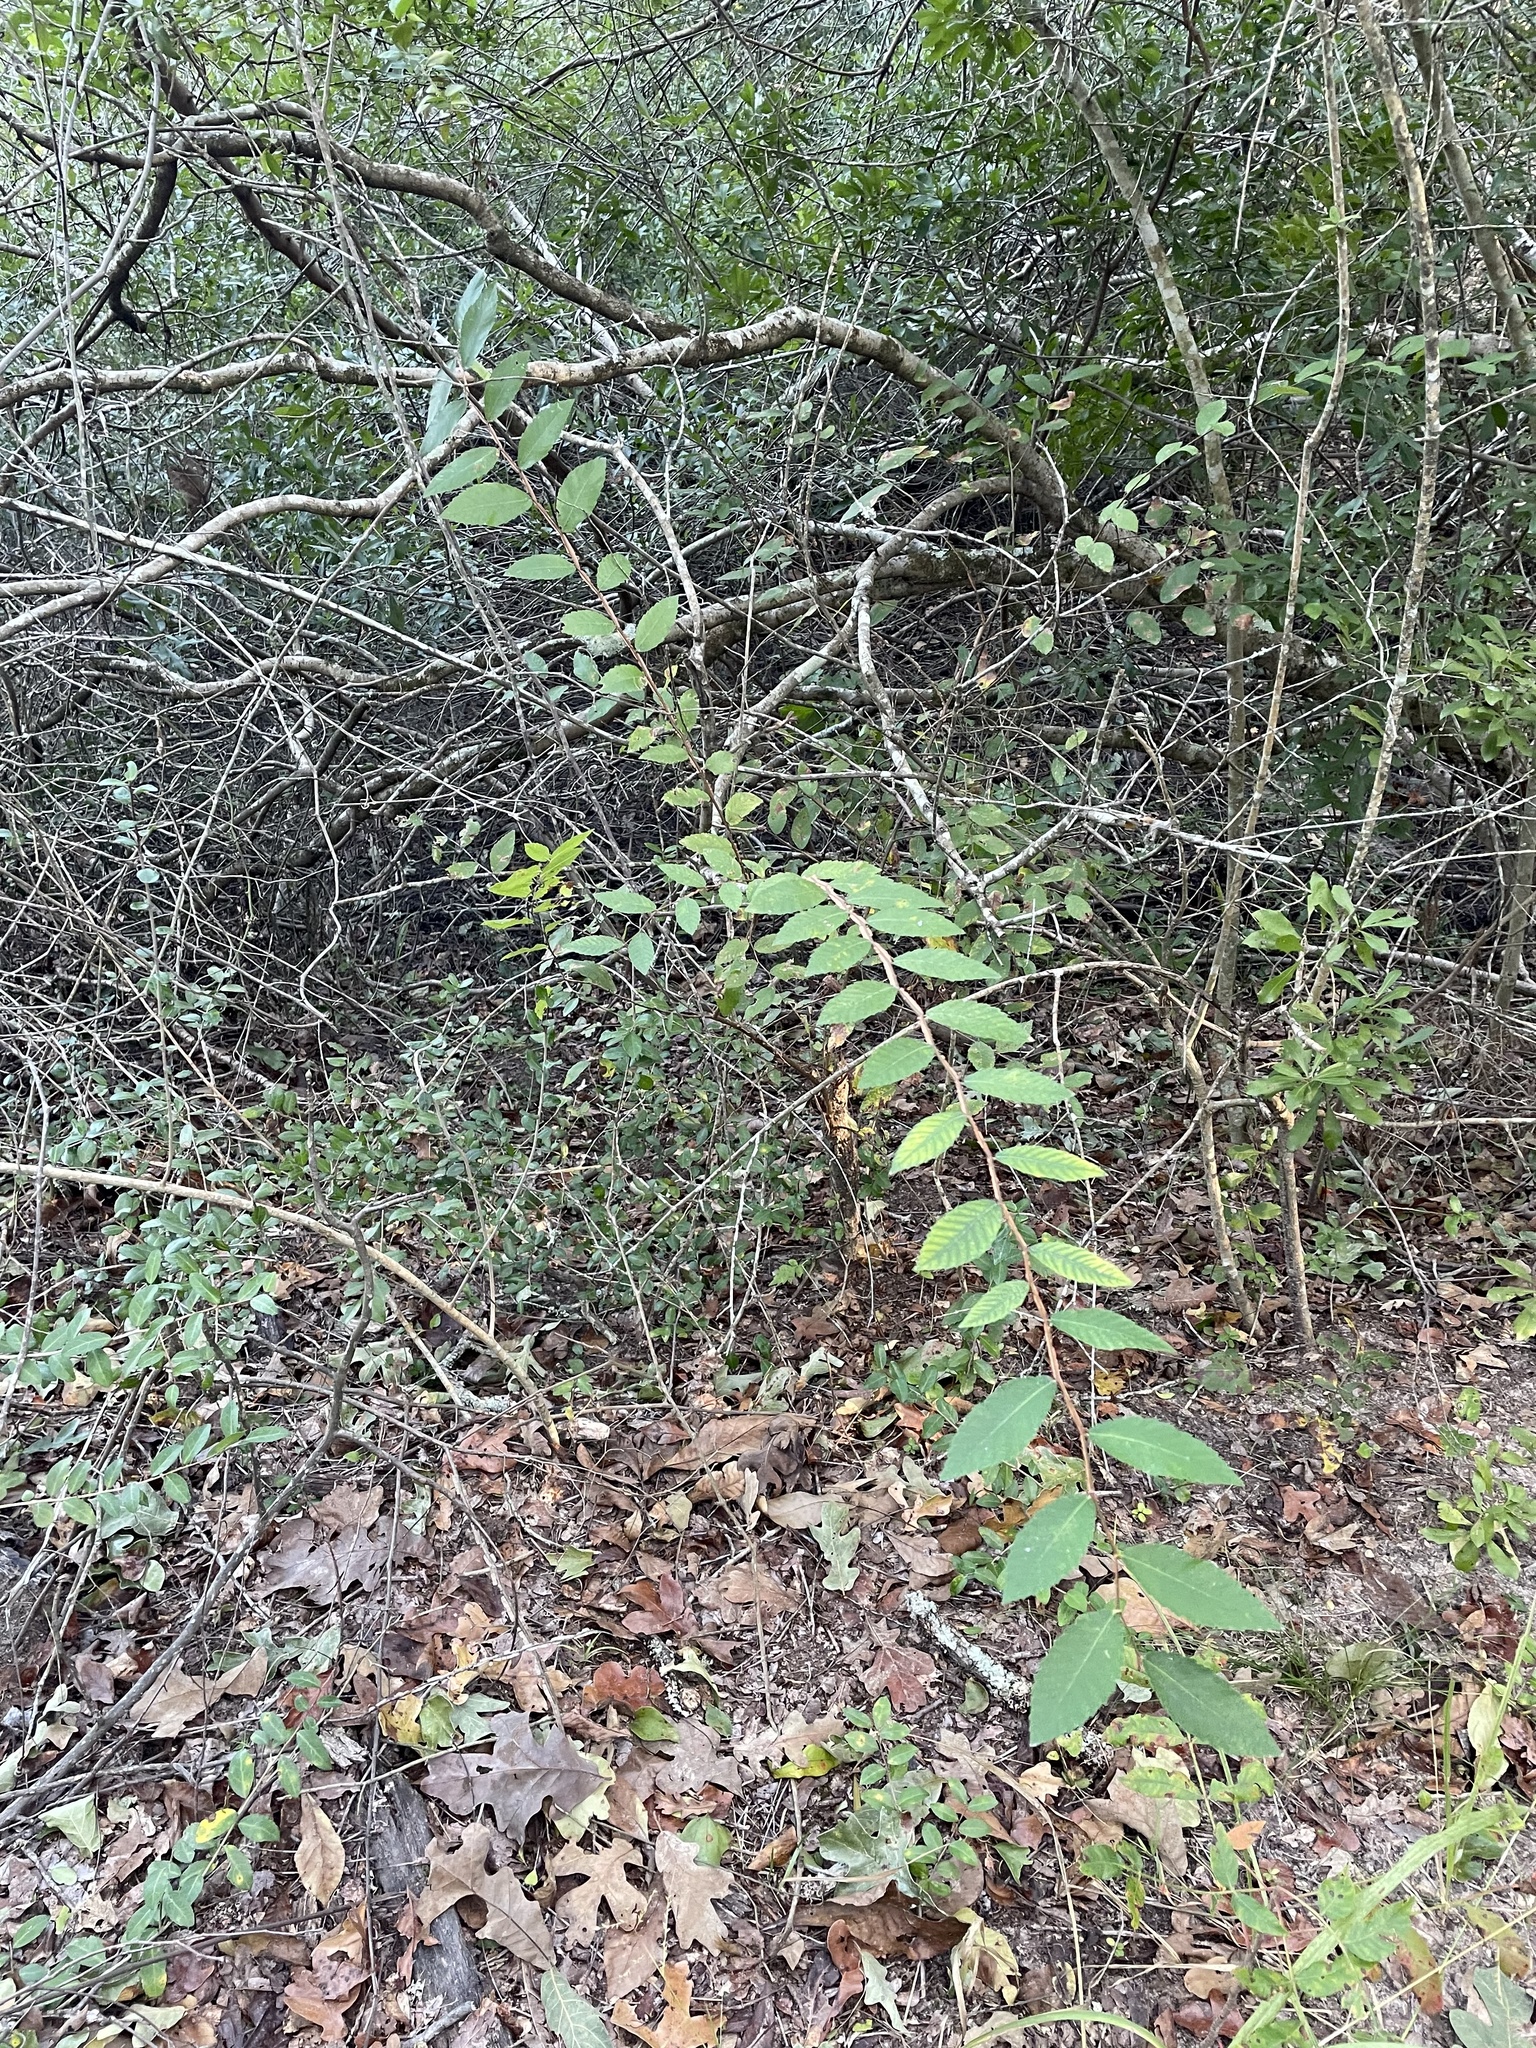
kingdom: Plantae
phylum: Tracheophyta
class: Magnoliopsida
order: Rosales
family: Ulmaceae
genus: Ulmus
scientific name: Ulmus alata
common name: Winged elm
